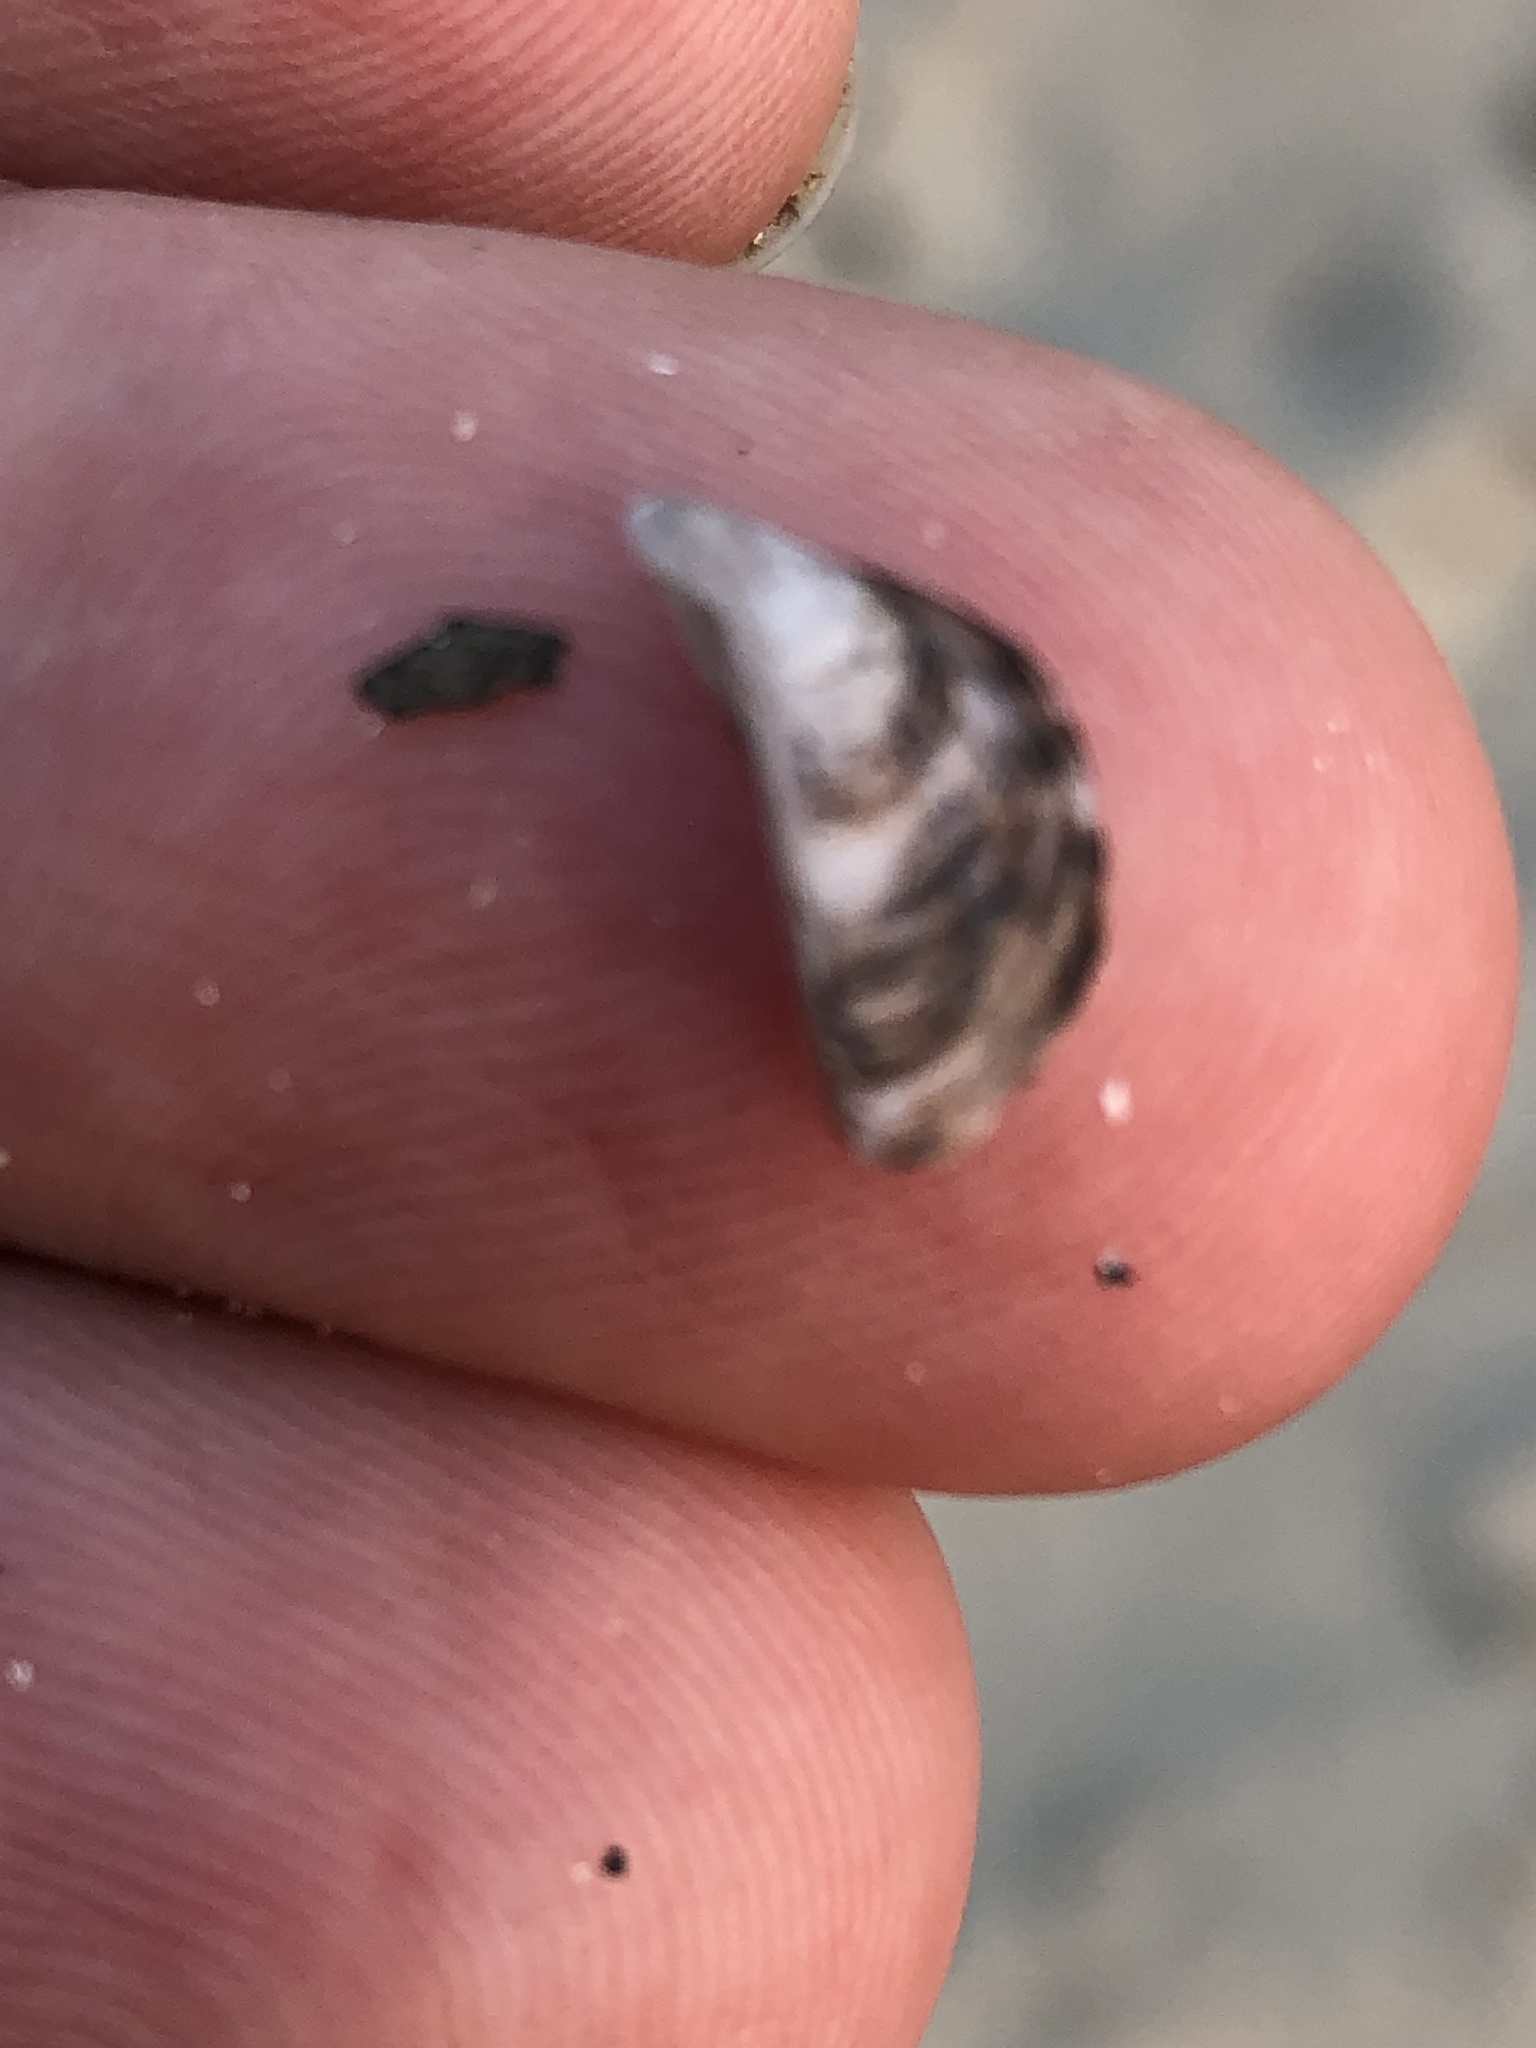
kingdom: Animalia
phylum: Mollusca
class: Bivalvia
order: Myida
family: Dreissenidae
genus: Dreissena
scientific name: Dreissena polymorpha
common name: Zebra mussel
